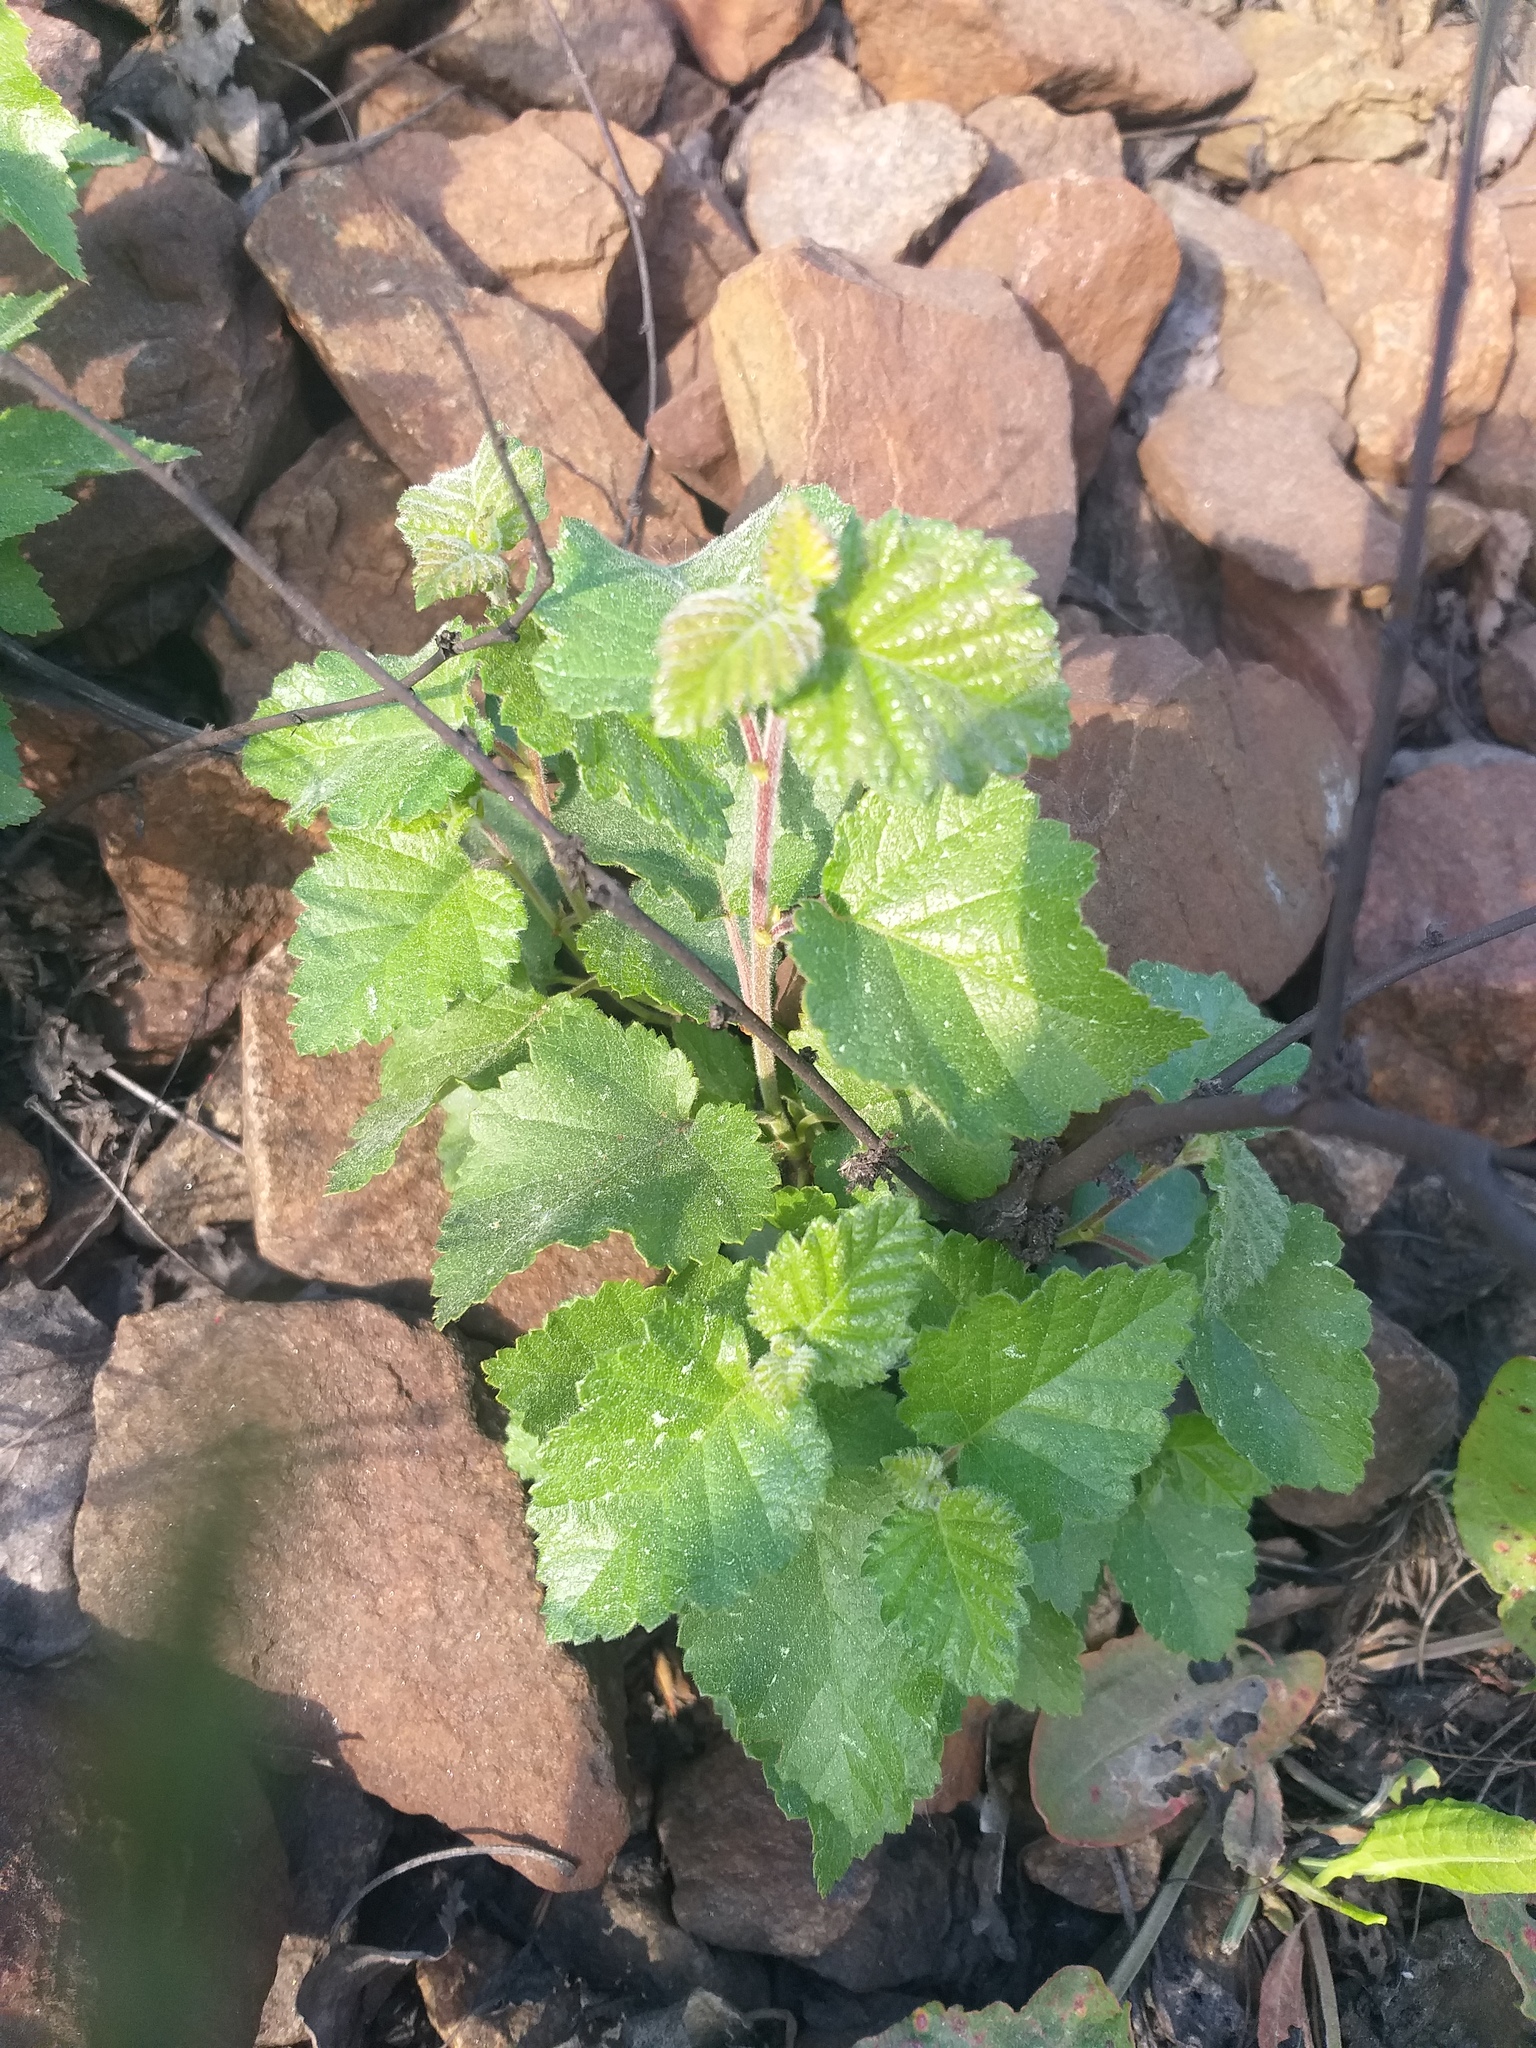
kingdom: Plantae
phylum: Tracheophyta
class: Magnoliopsida
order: Fagales
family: Betulaceae
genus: Betula
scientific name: Betula pubescens
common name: Downy birch
